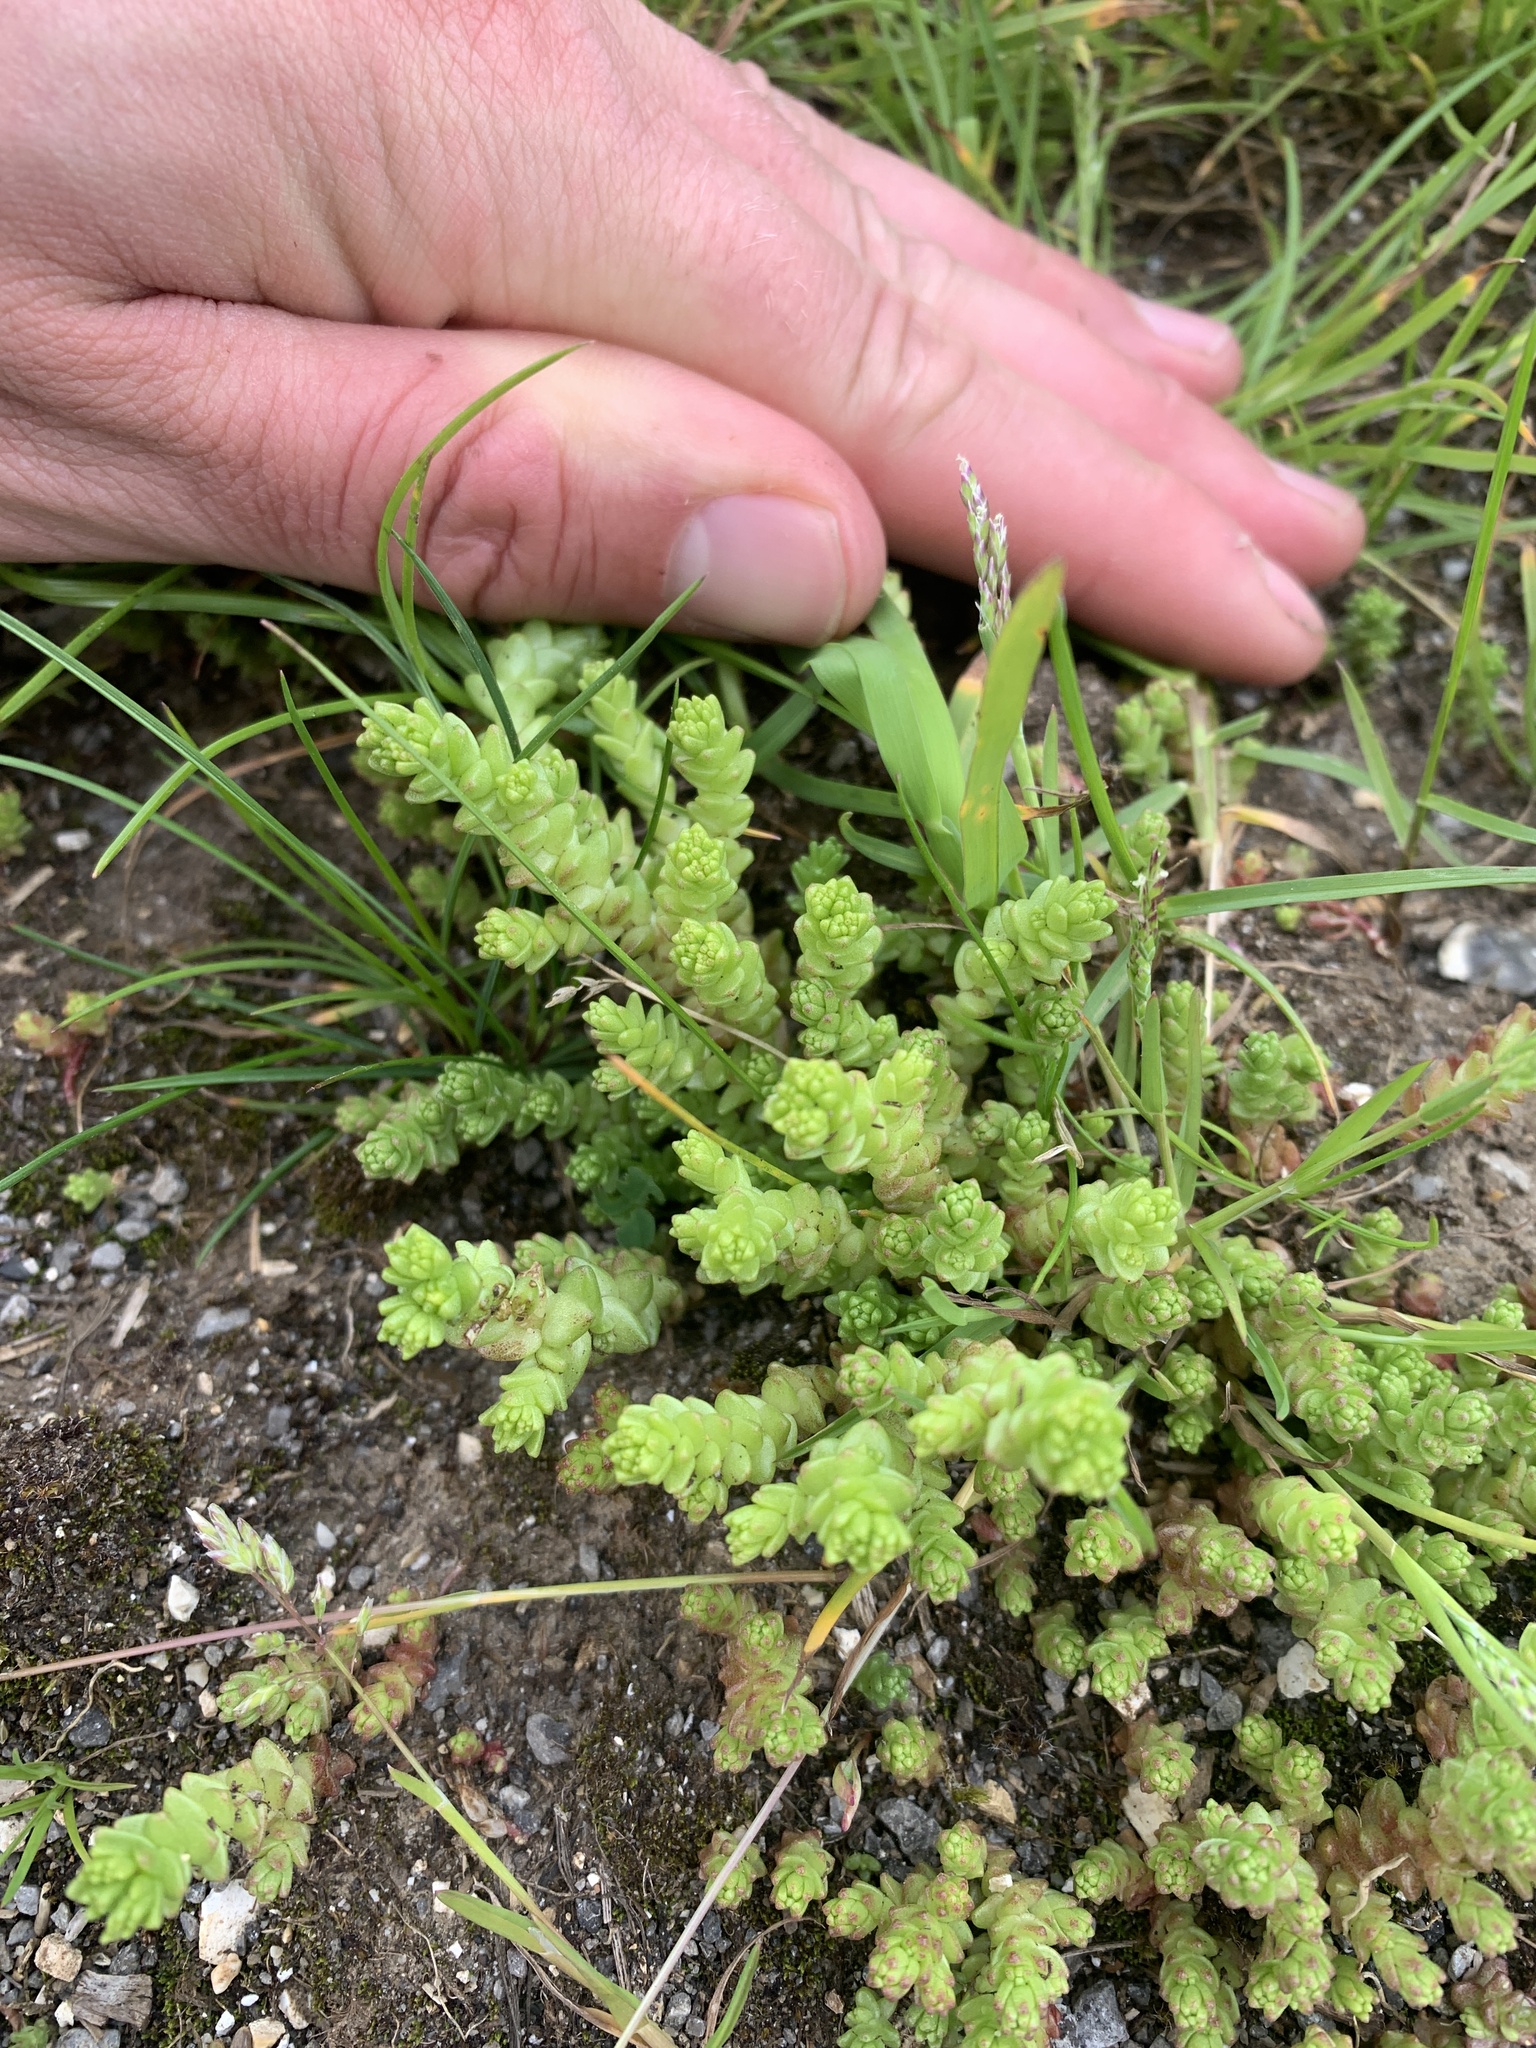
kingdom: Plantae
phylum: Tracheophyta
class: Magnoliopsida
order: Saxifragales
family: Crassulaceae
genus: Sedum
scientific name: Sedum acre
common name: Biting stonecrop
